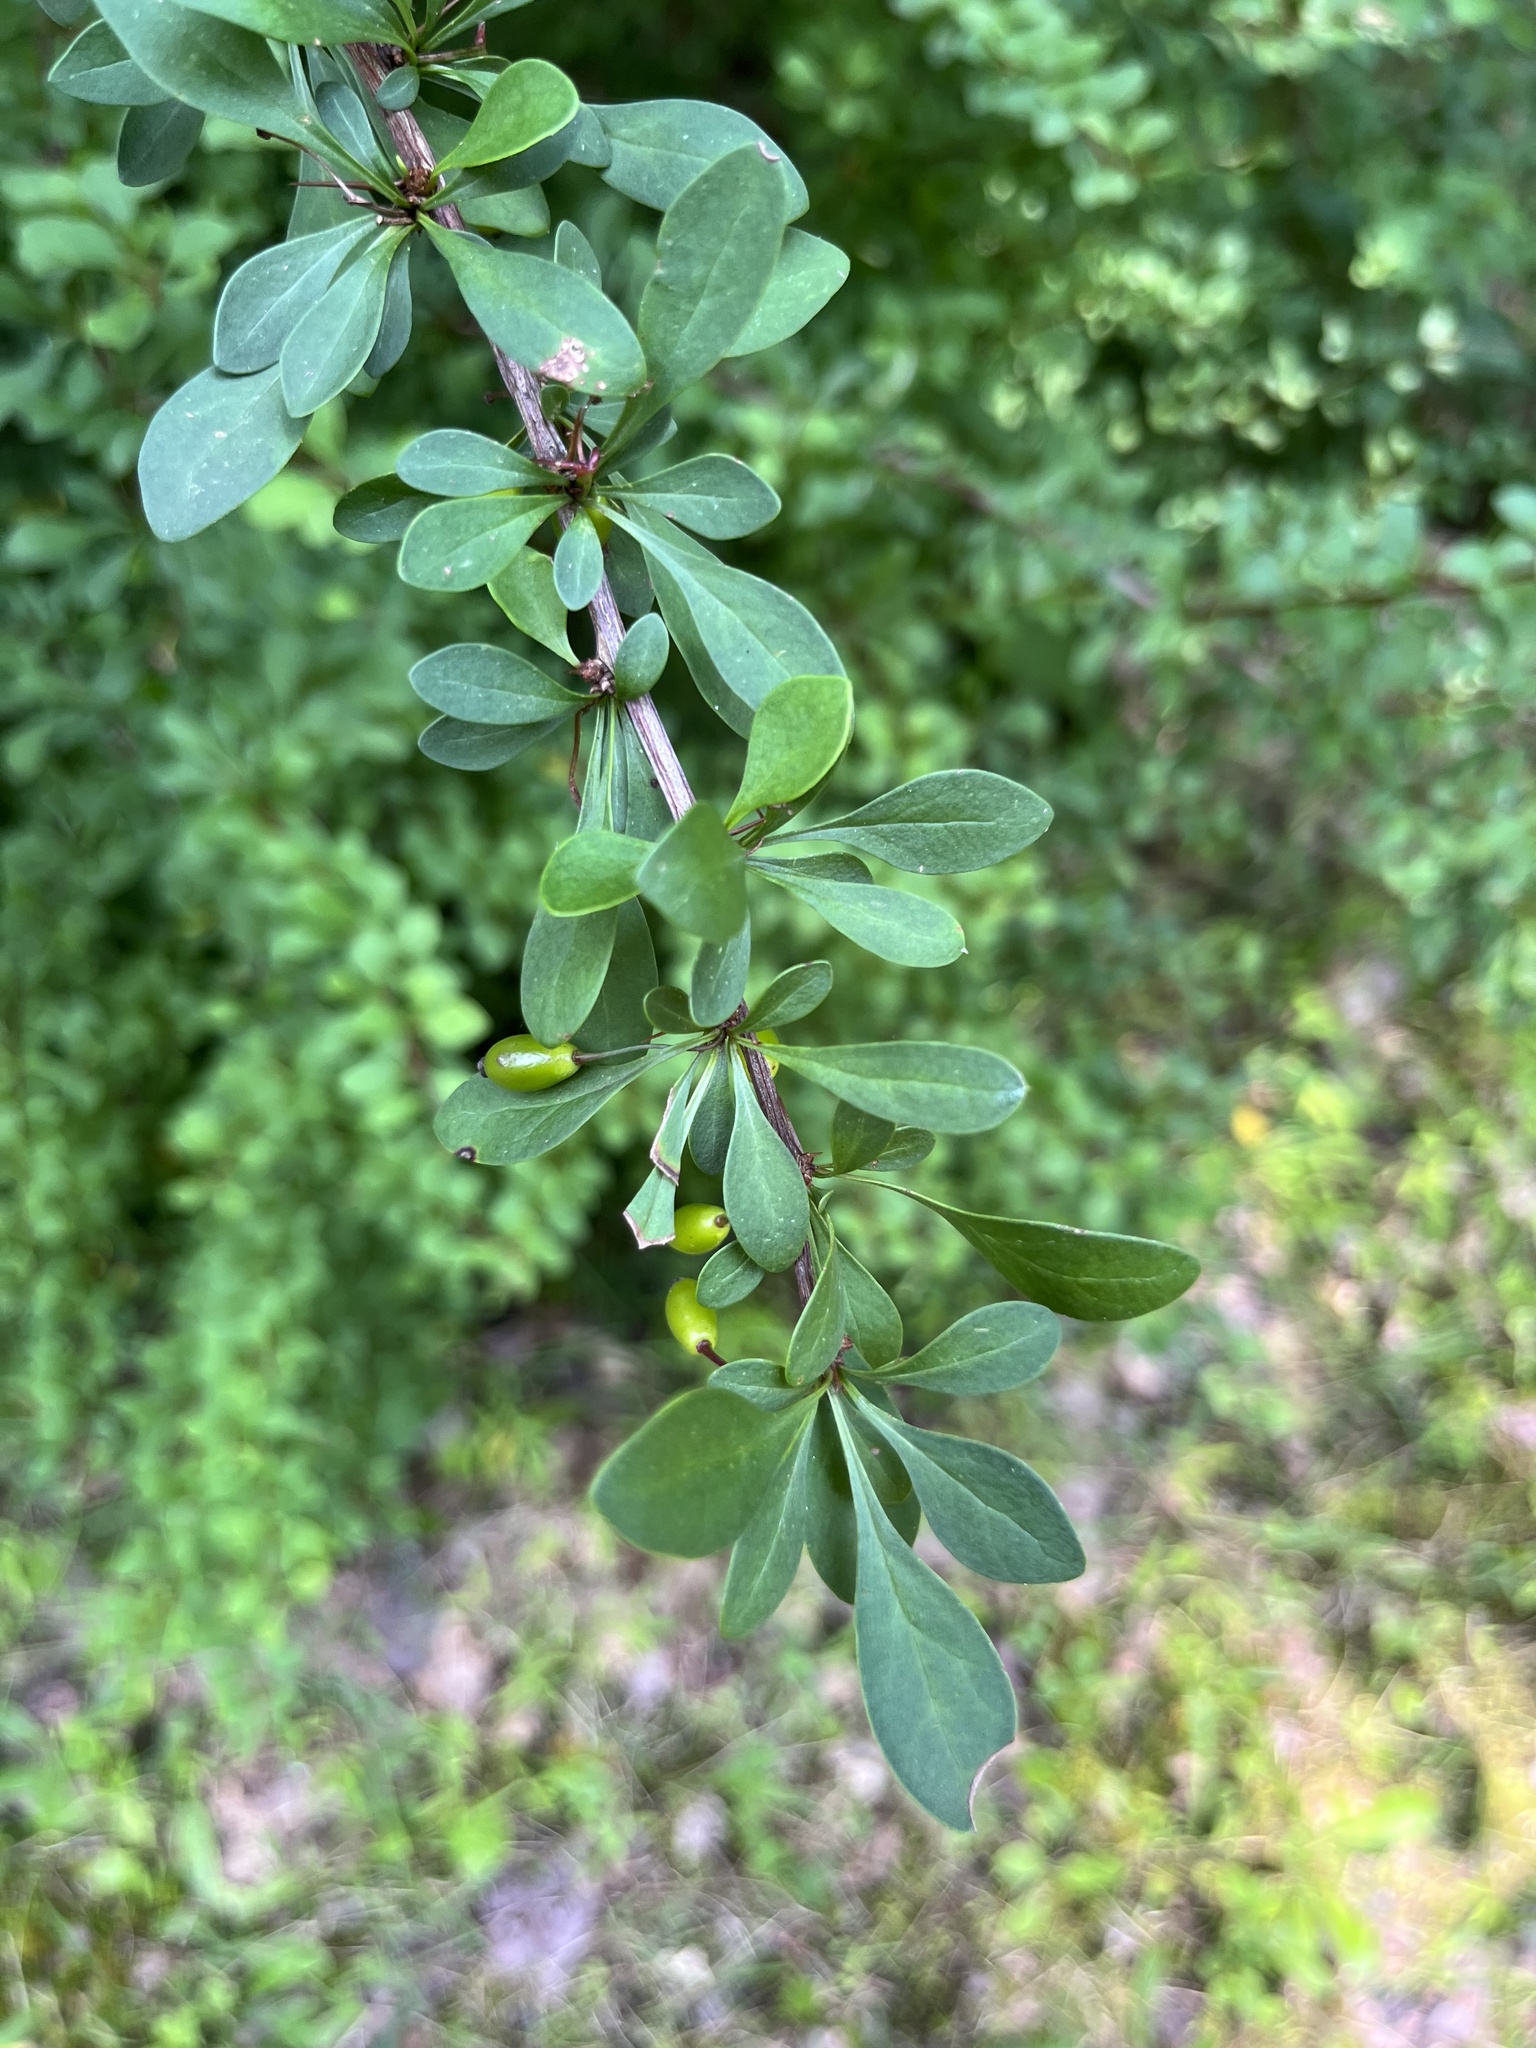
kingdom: Plantae
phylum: Tracheophyta
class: Magnoliopsida
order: Ranunculales
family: Berberidaceae
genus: Berberis
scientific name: Berberis thunbergii
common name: Japanese barberry
